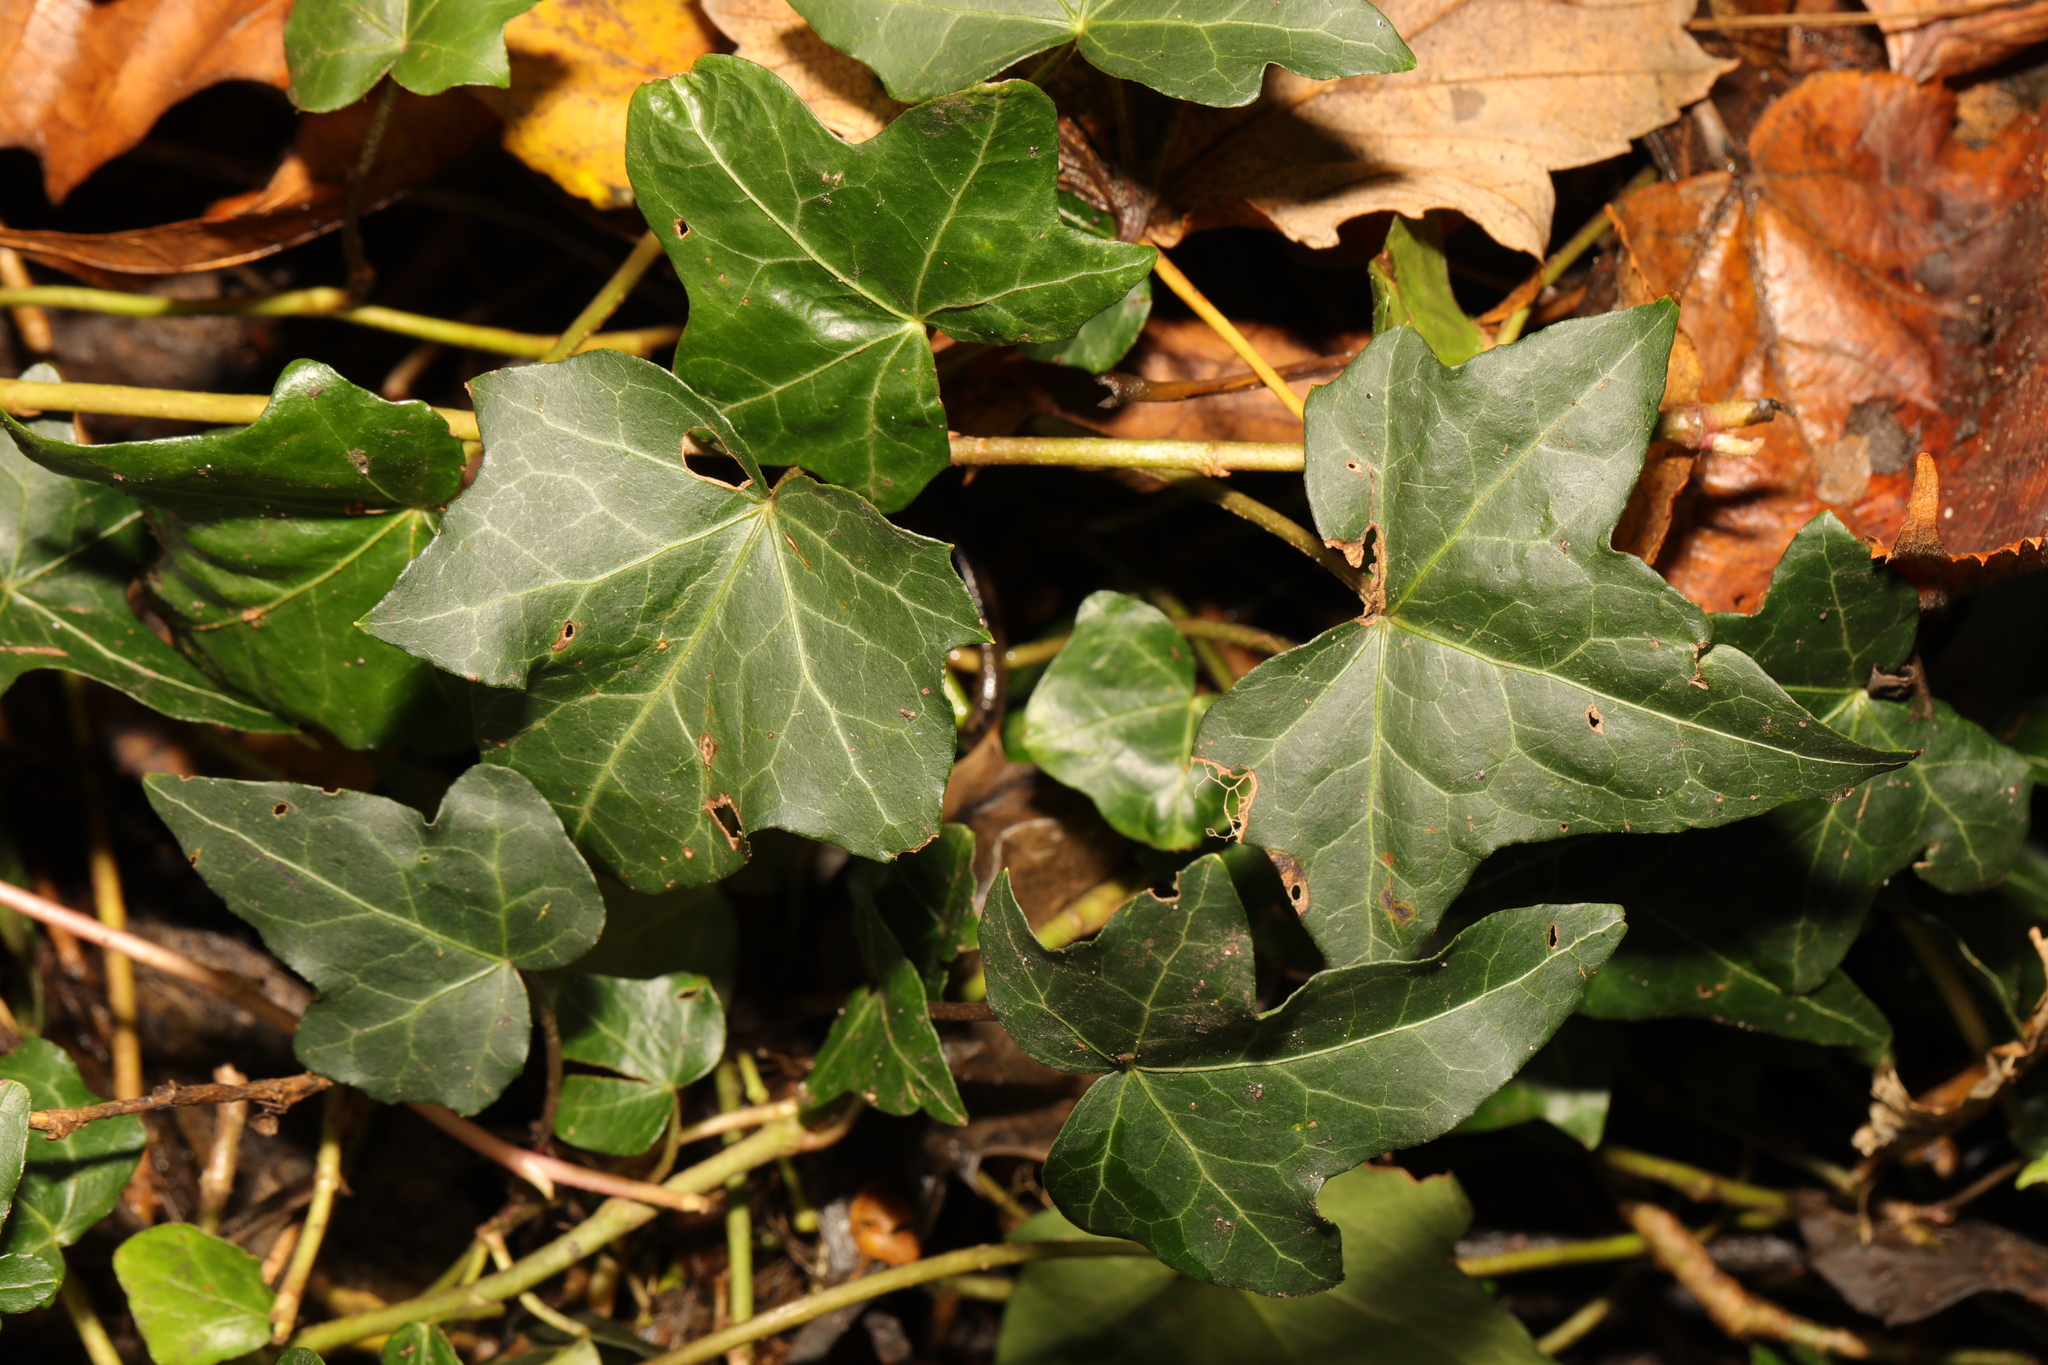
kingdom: Plantae
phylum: Tracheophyta
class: Magnoliopsida
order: Apiales
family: Araliaceae
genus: Hedera
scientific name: Hedera helix
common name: Ivy
